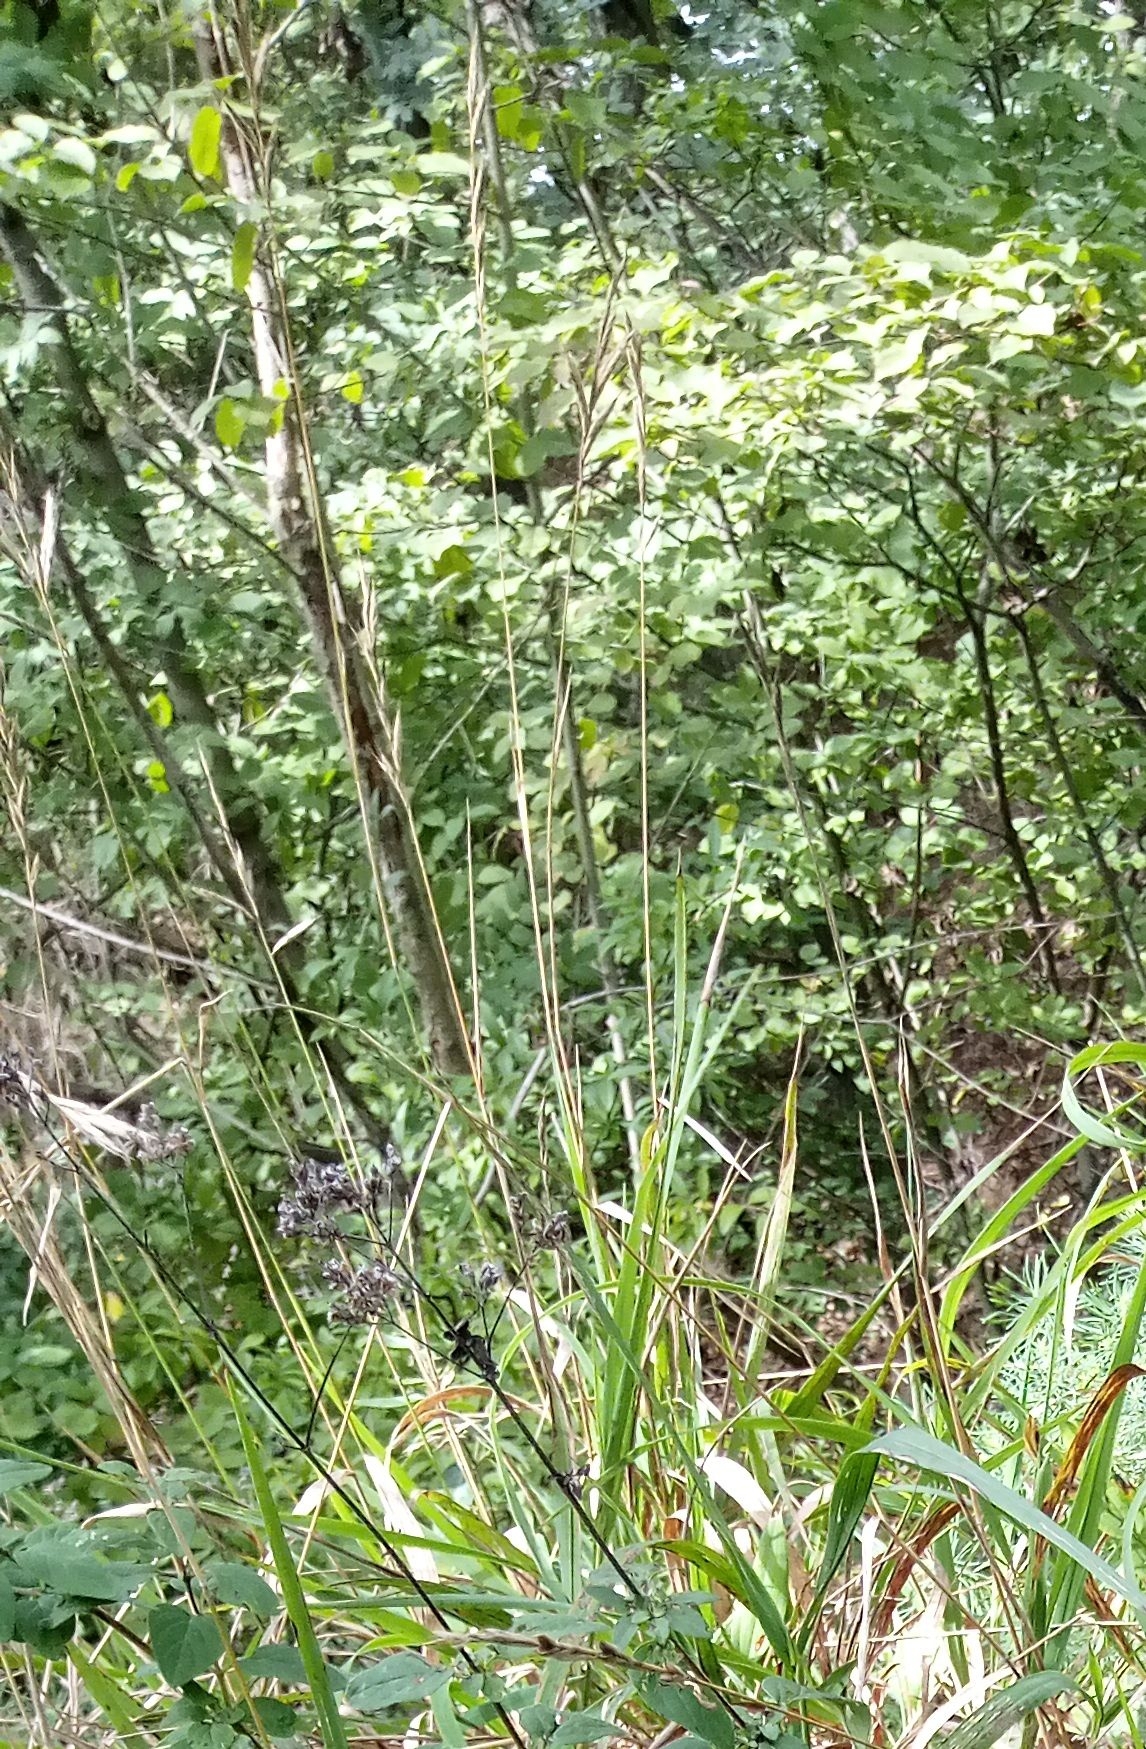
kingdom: Plantae
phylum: Tracheophyta
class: Liliopsida
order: Poales
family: Poaceae
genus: Brachypodium
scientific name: Brachypodium pinnatum
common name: Tor grass
